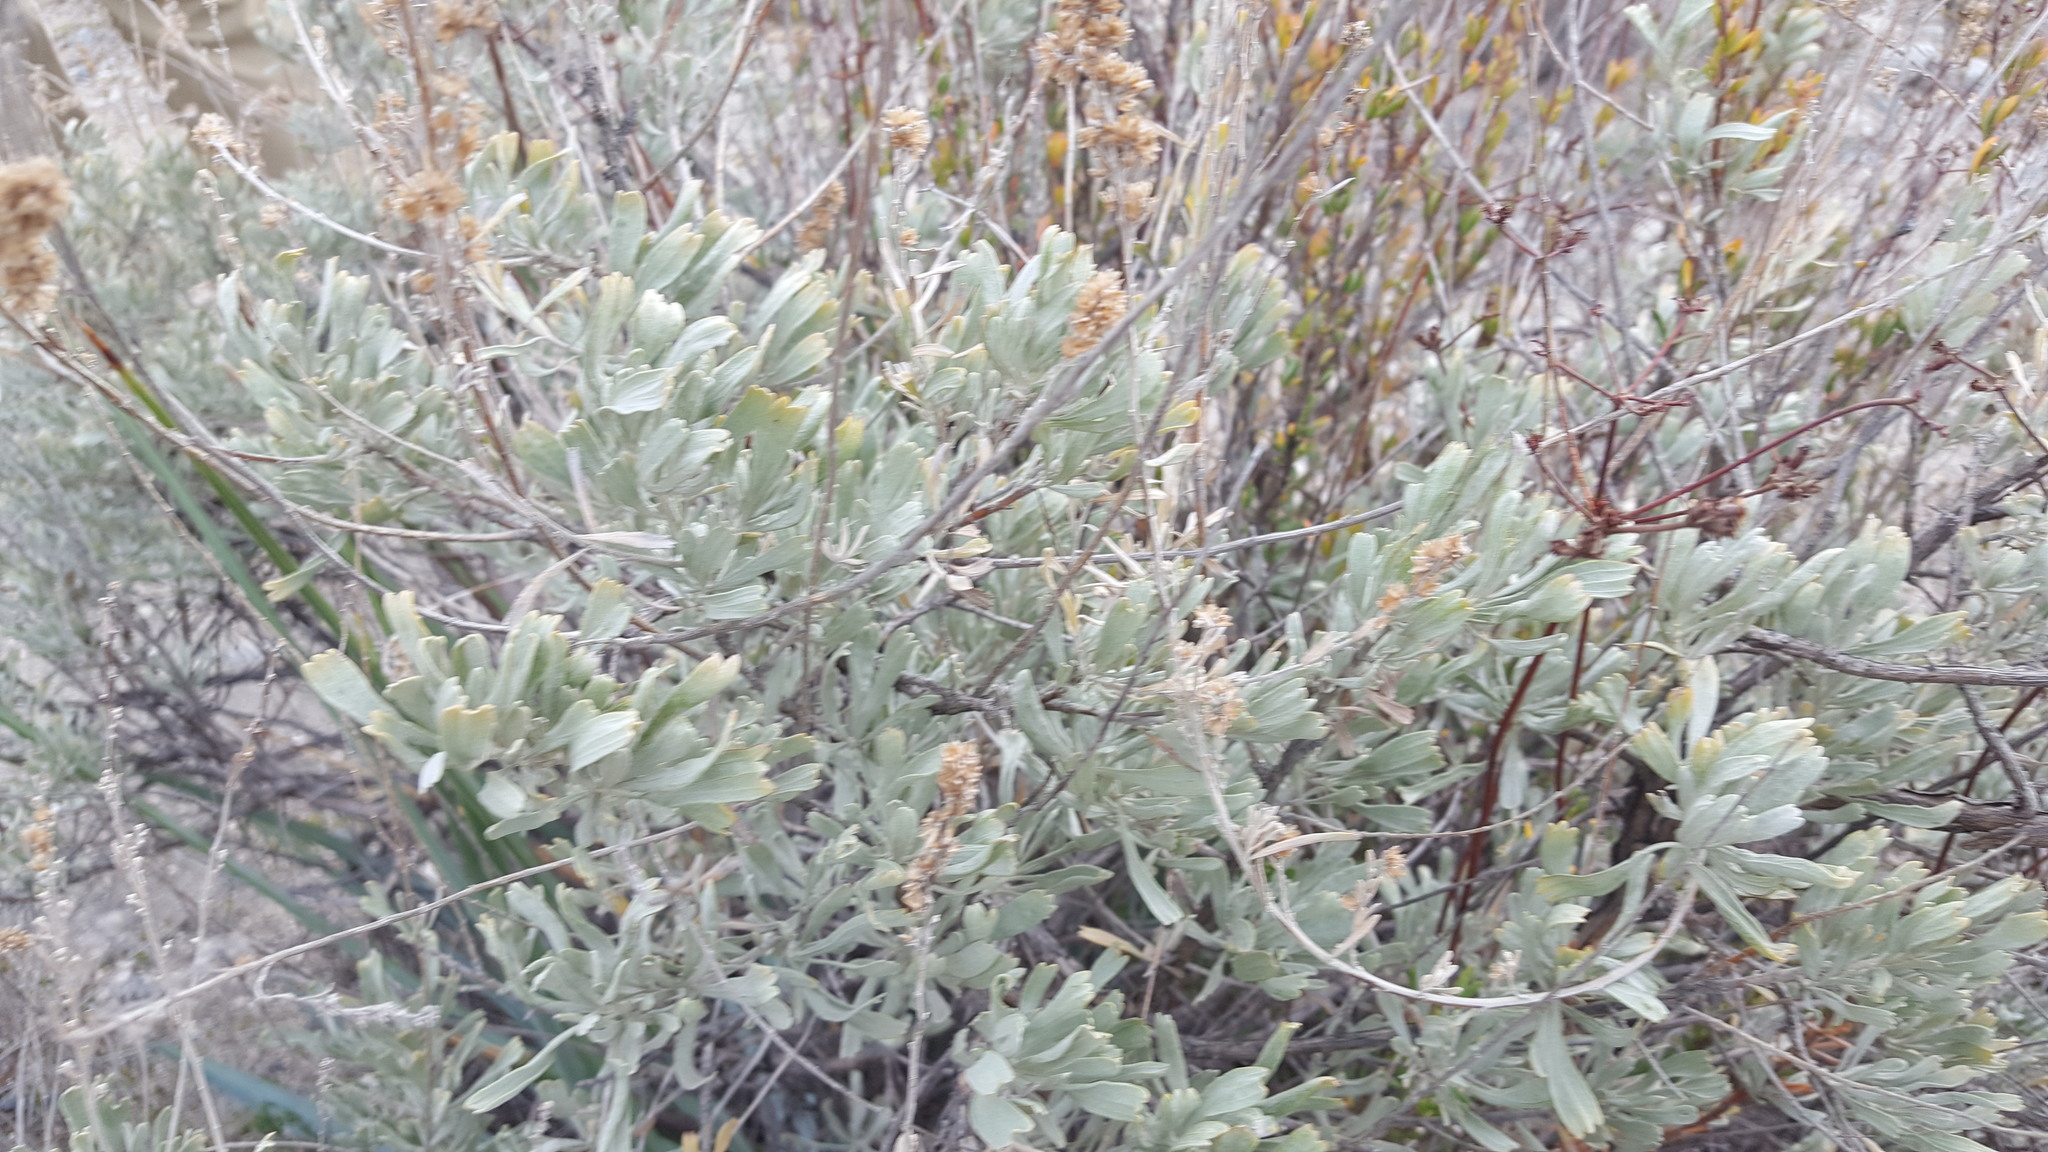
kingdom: Plantae
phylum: Tracheophyta
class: Magnoliopsida
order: Asterales
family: Asteraceae
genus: Artemisia
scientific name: Artemisia tridentata
